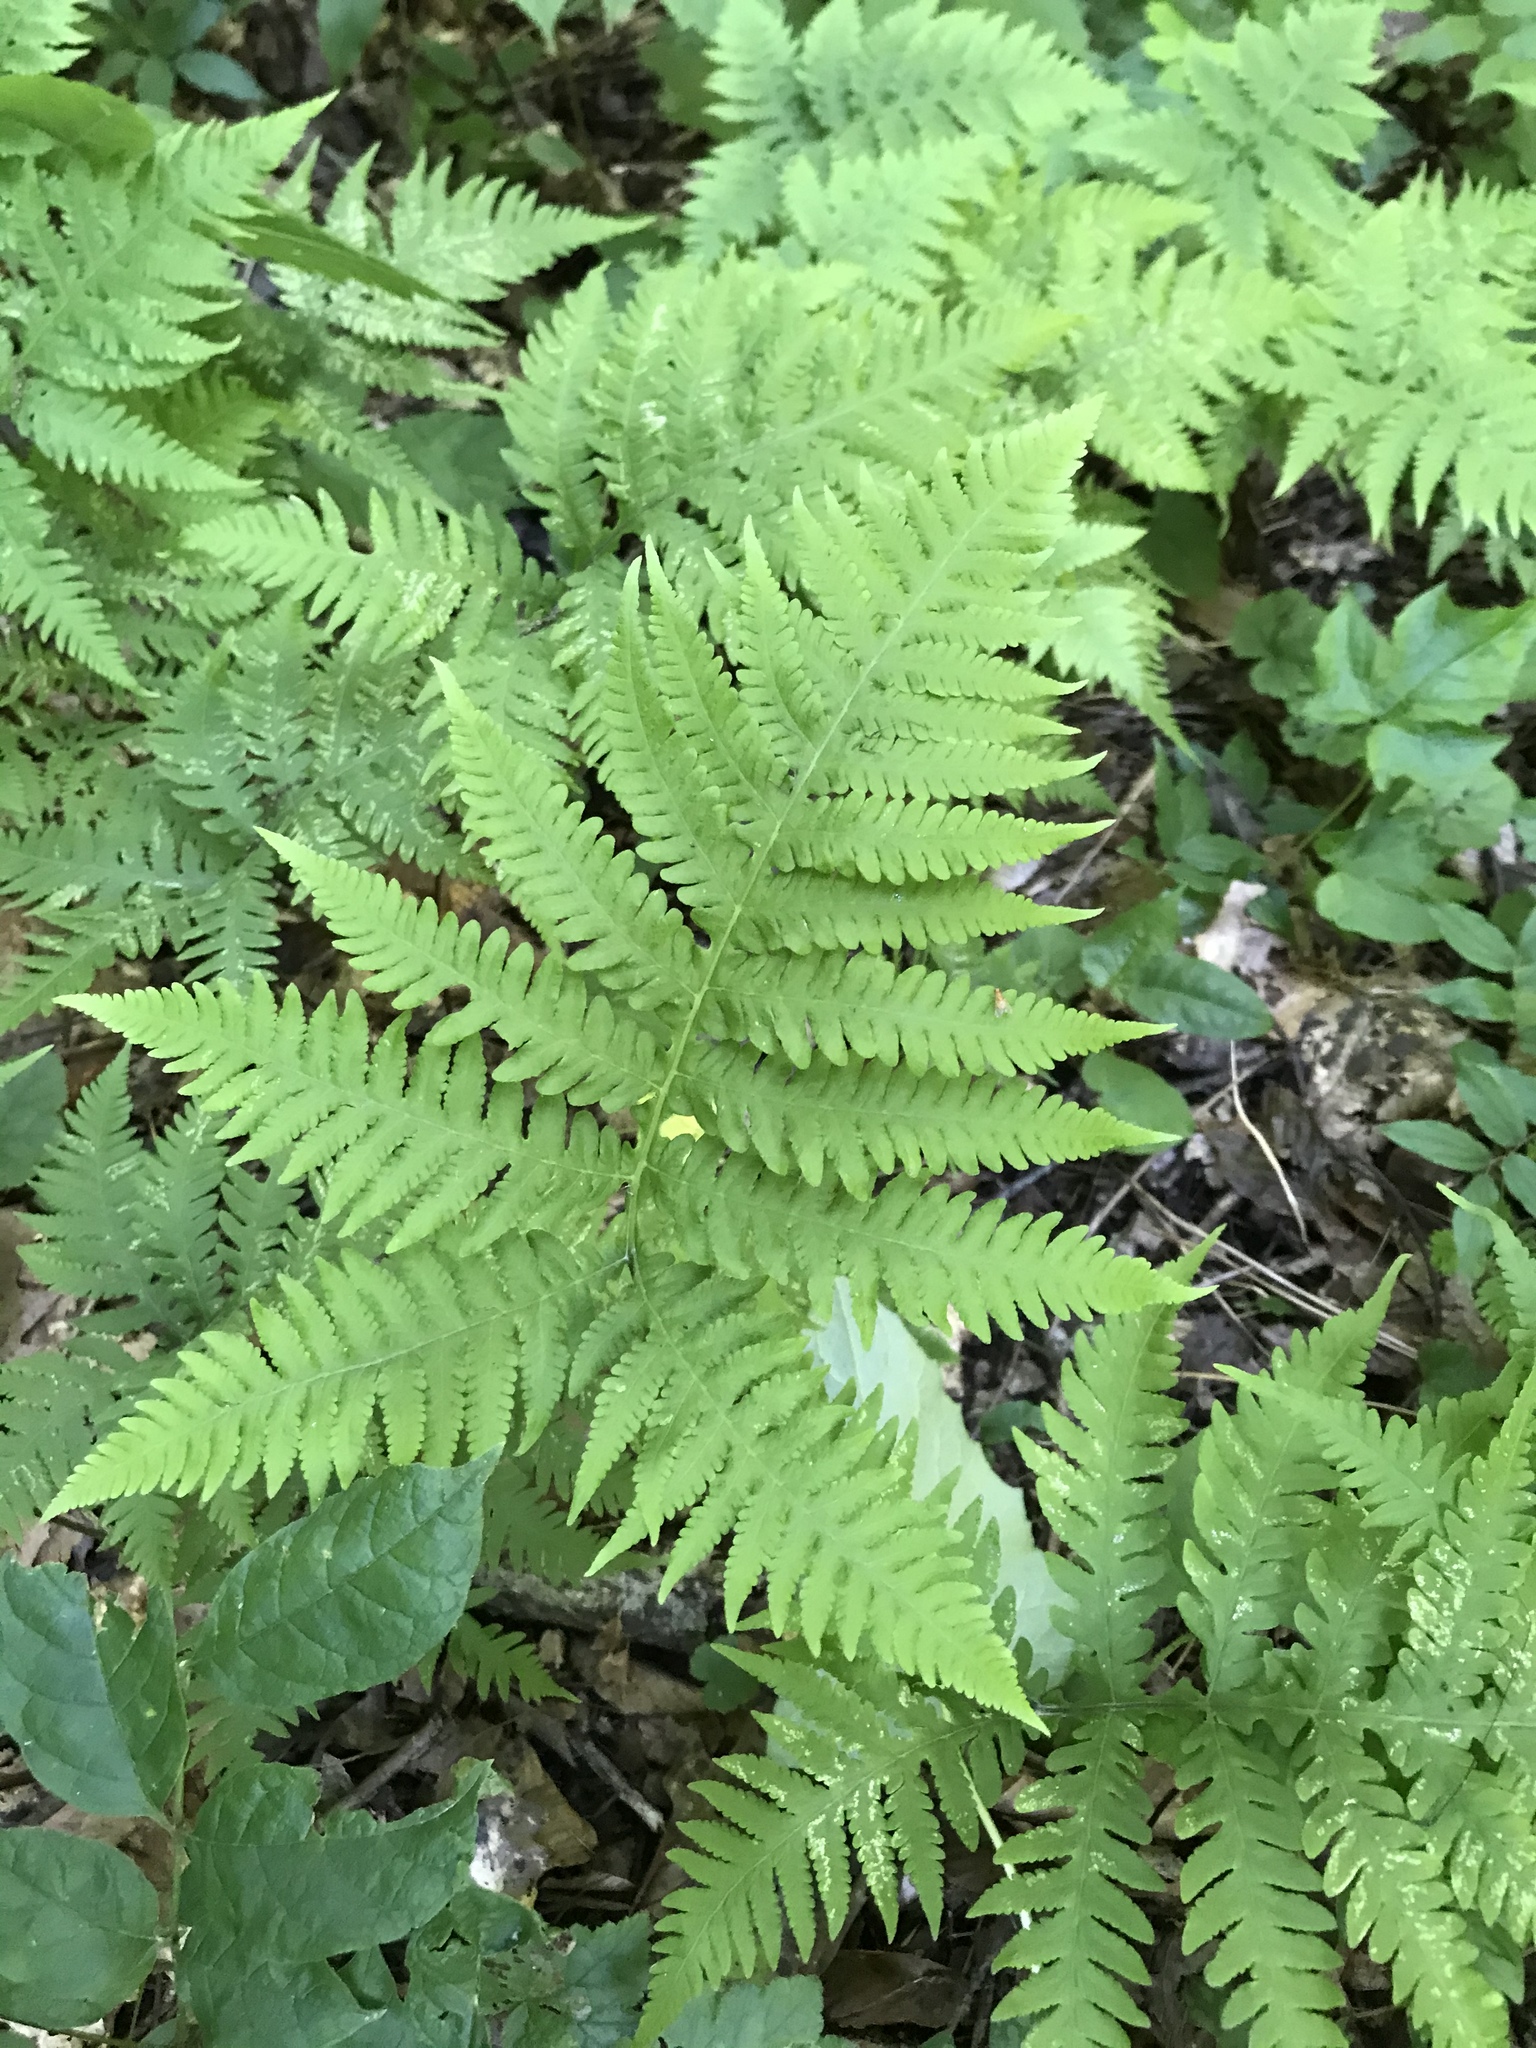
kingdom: Plantae
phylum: Tracheophyta
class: Polypodiopsida
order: Polypodiales
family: Thelypteridaceae
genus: Phegopteris
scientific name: Phegopteris hexagonoptera
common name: Broad beech fern
